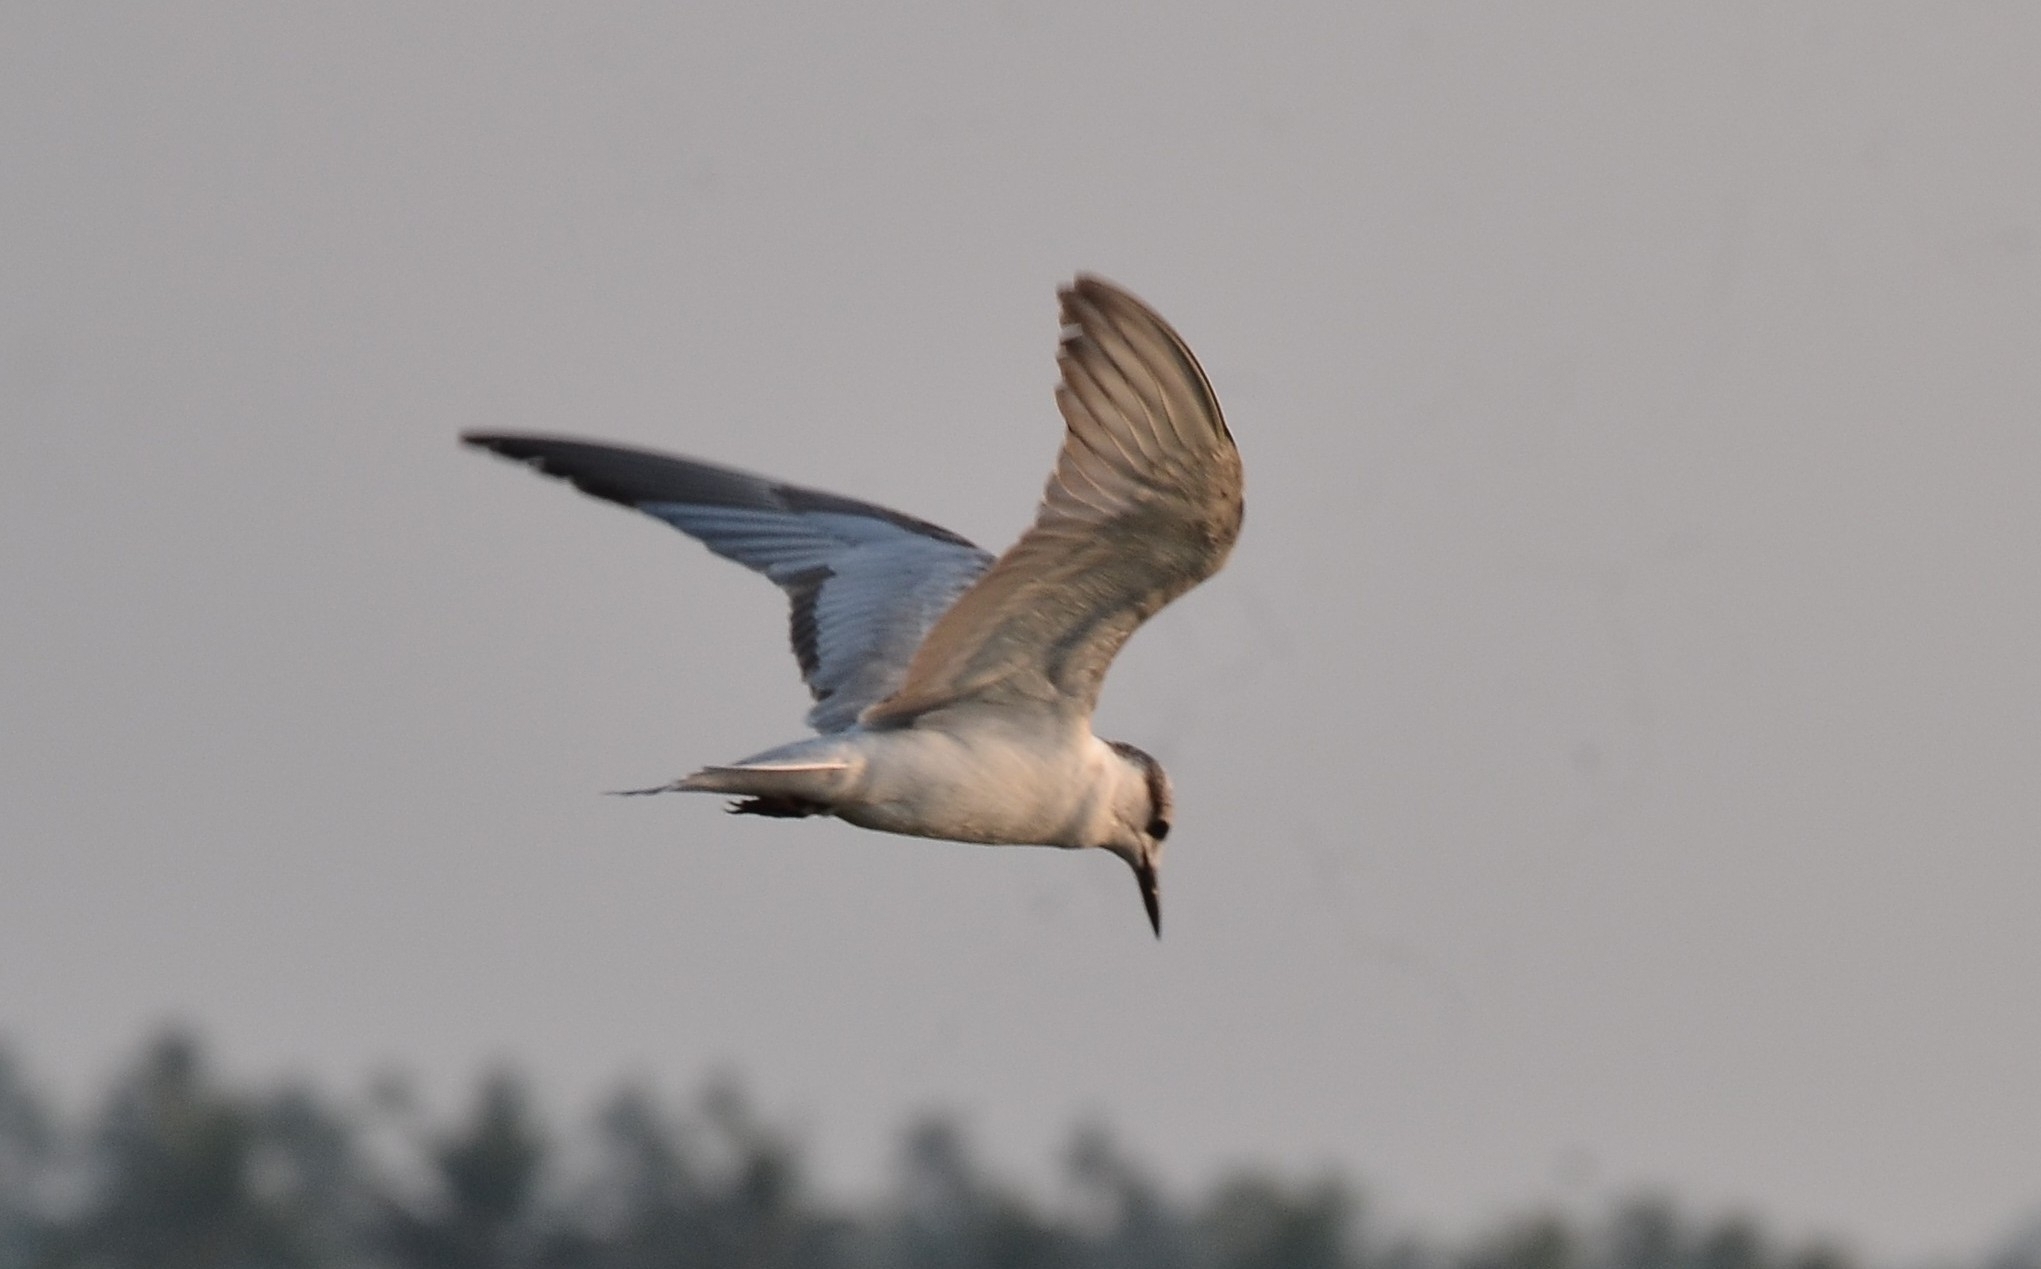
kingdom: Animalia
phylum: Chordata
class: Aves
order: Charadriiformes
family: Laridae
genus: Chlidonias
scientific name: Chlidonias hybrida
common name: Whiskered tern
